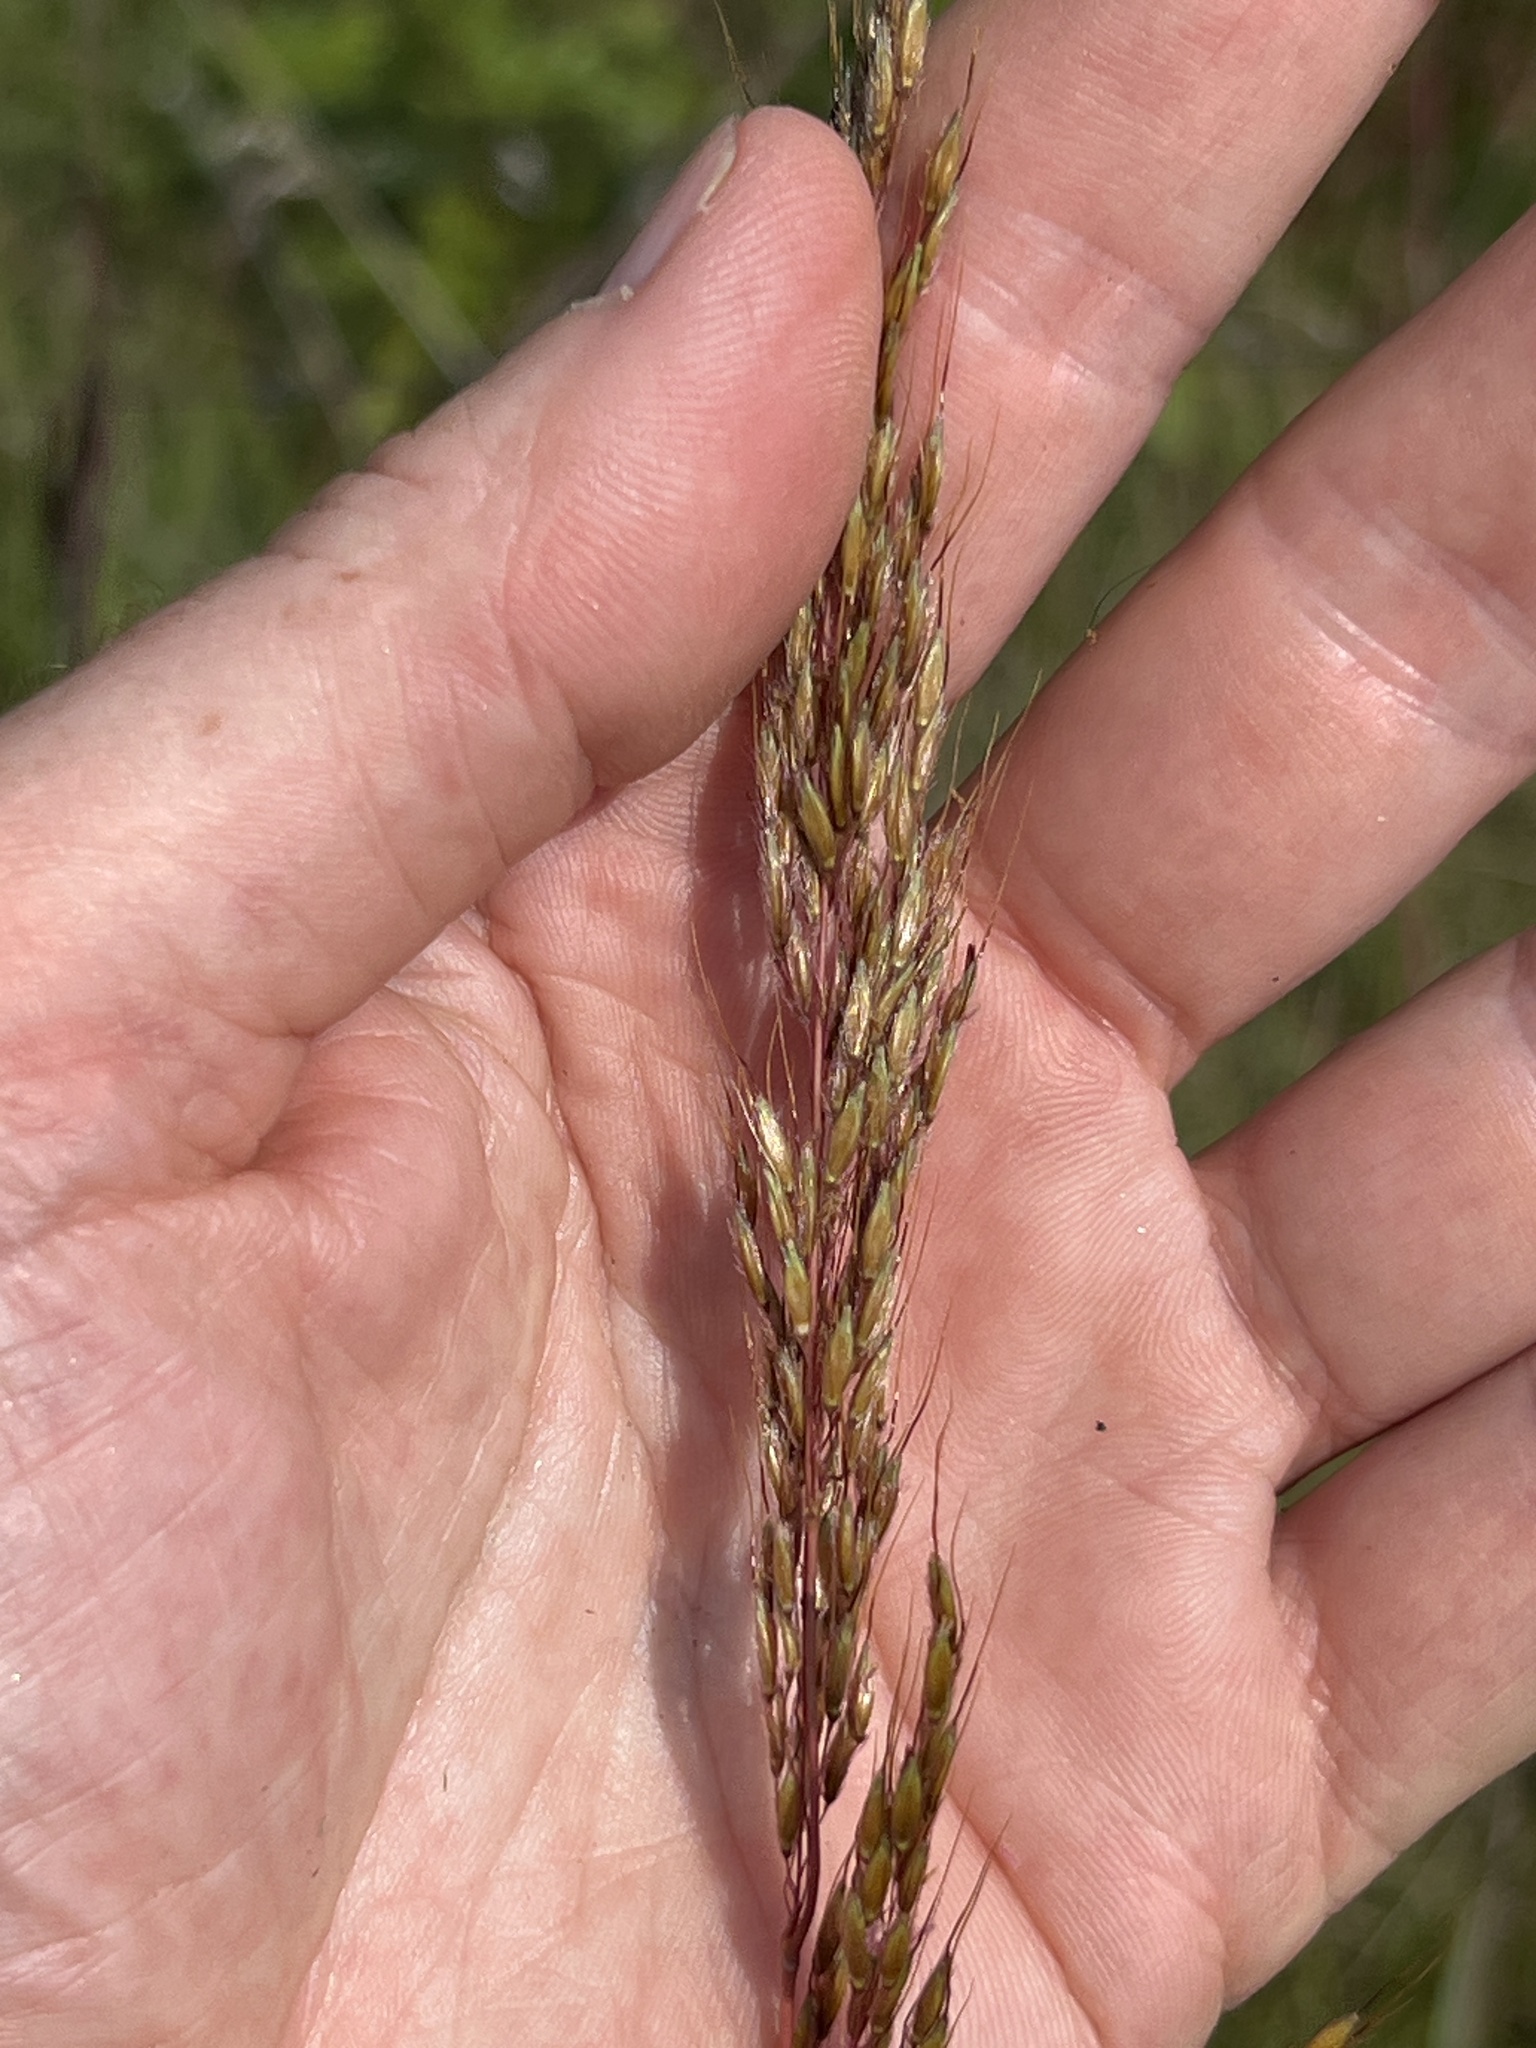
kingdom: Plantae
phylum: Tracheophyta
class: Liliopsida
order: Poales
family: Poaceae
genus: Sorghastrum
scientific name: Sorghastrum nutans
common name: Indian grass
